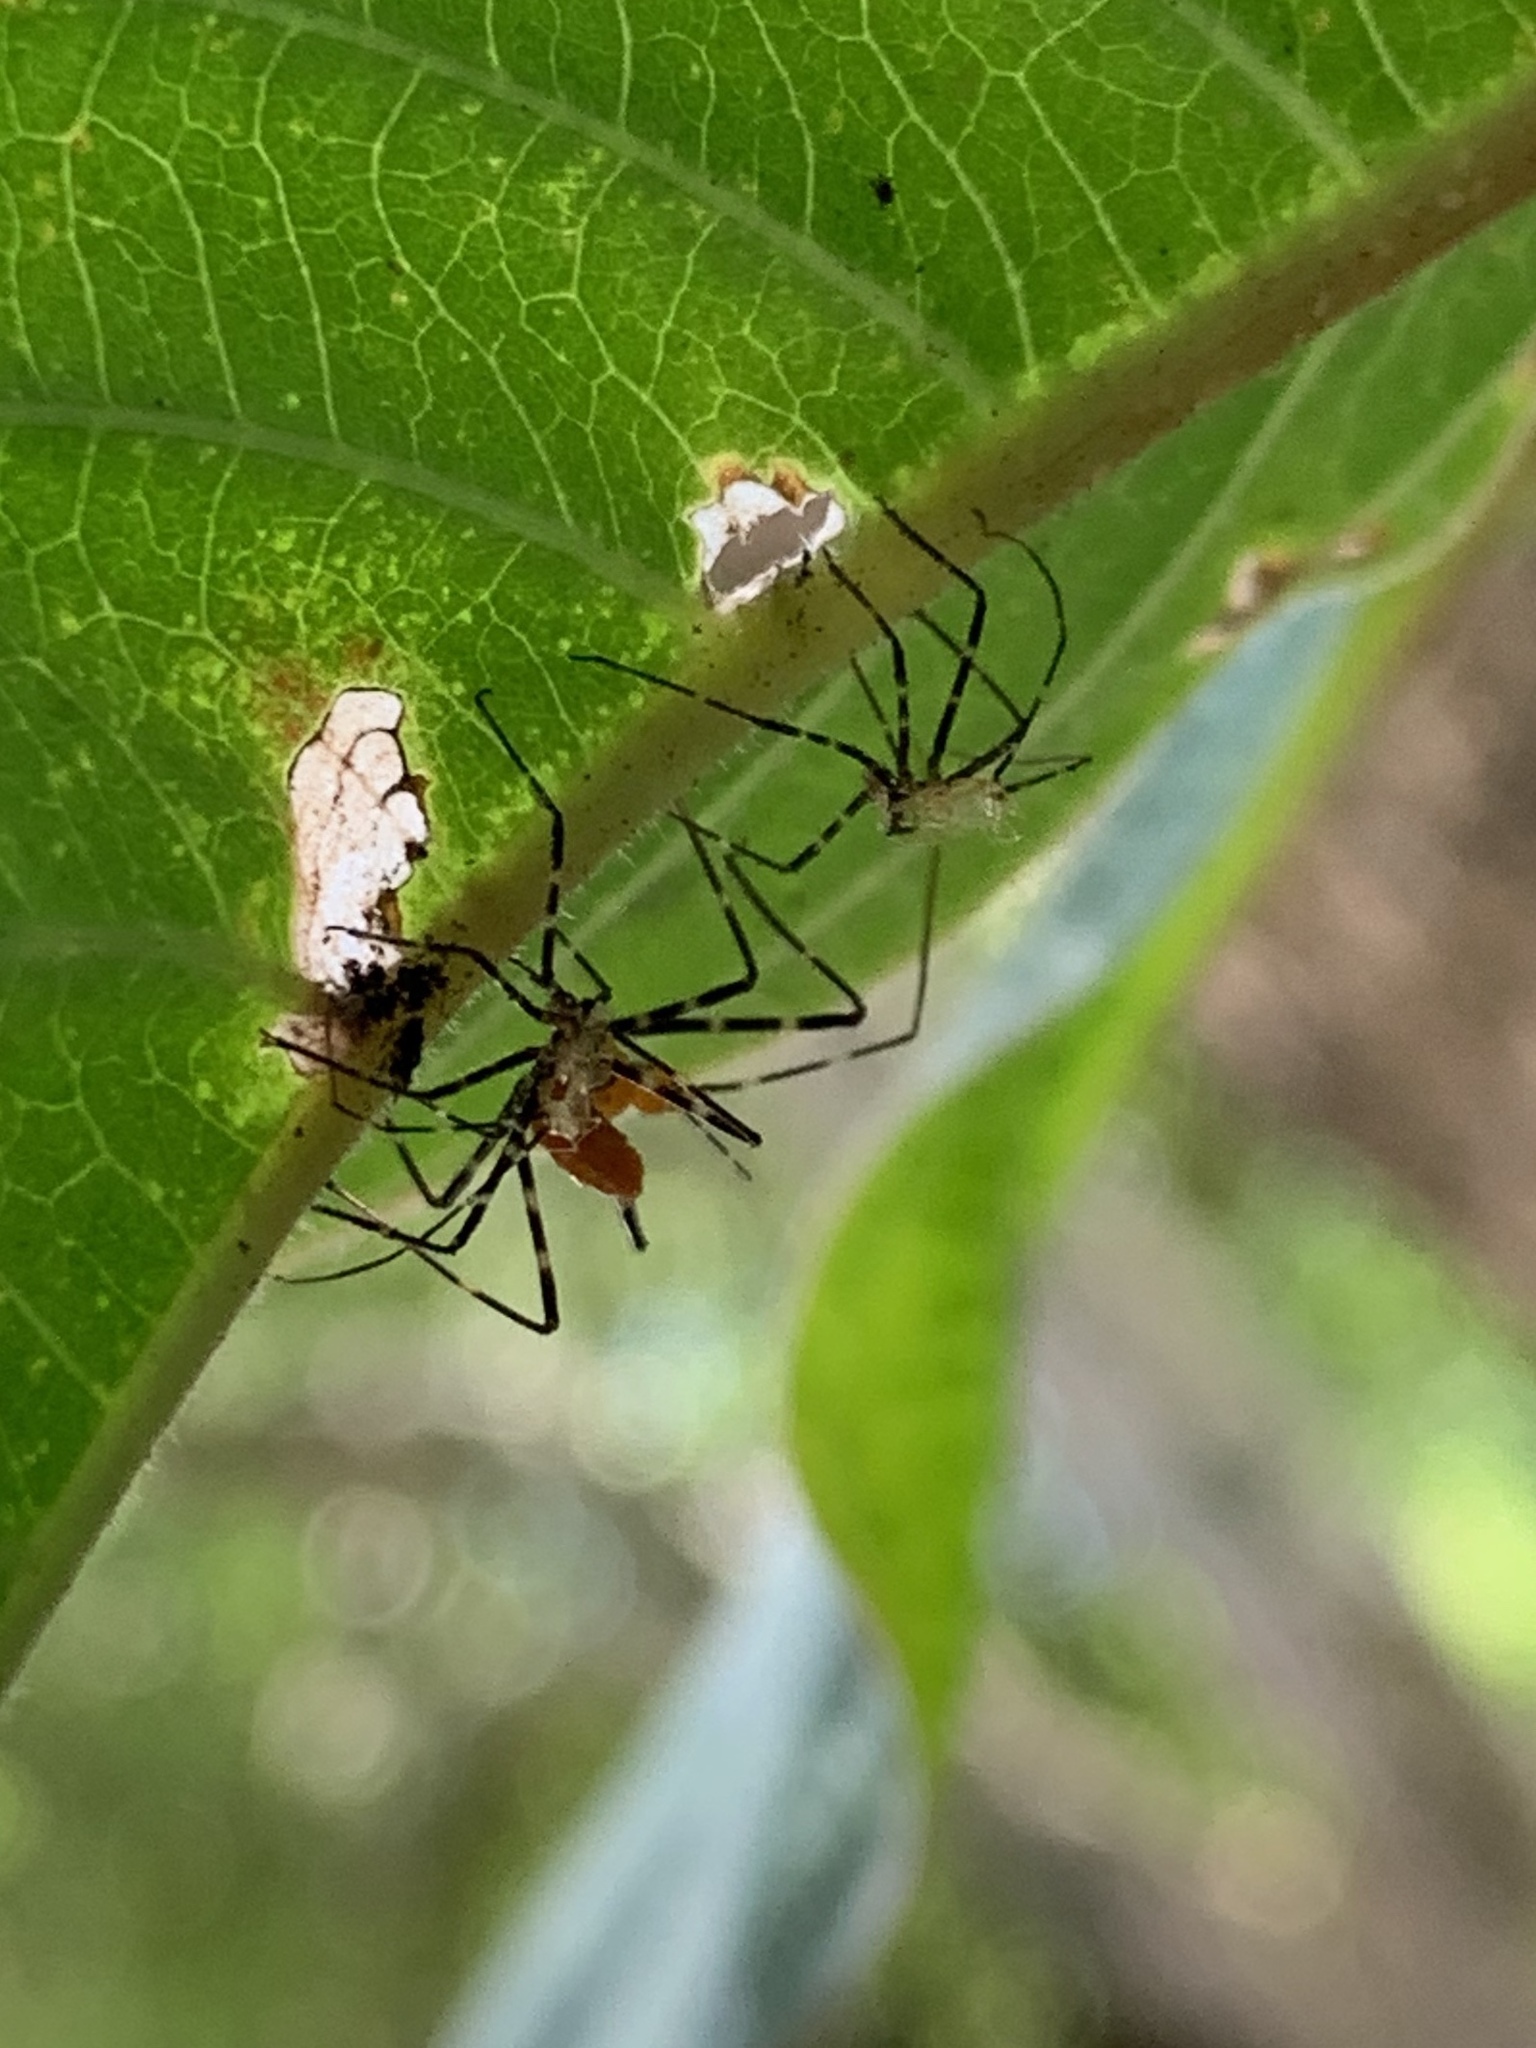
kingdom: Animalia
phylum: Arthropoda
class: Insecta
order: Hemiptera
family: Reduviidae
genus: Zelus
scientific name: Zelus longipes
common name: Milkweed assassin bug
